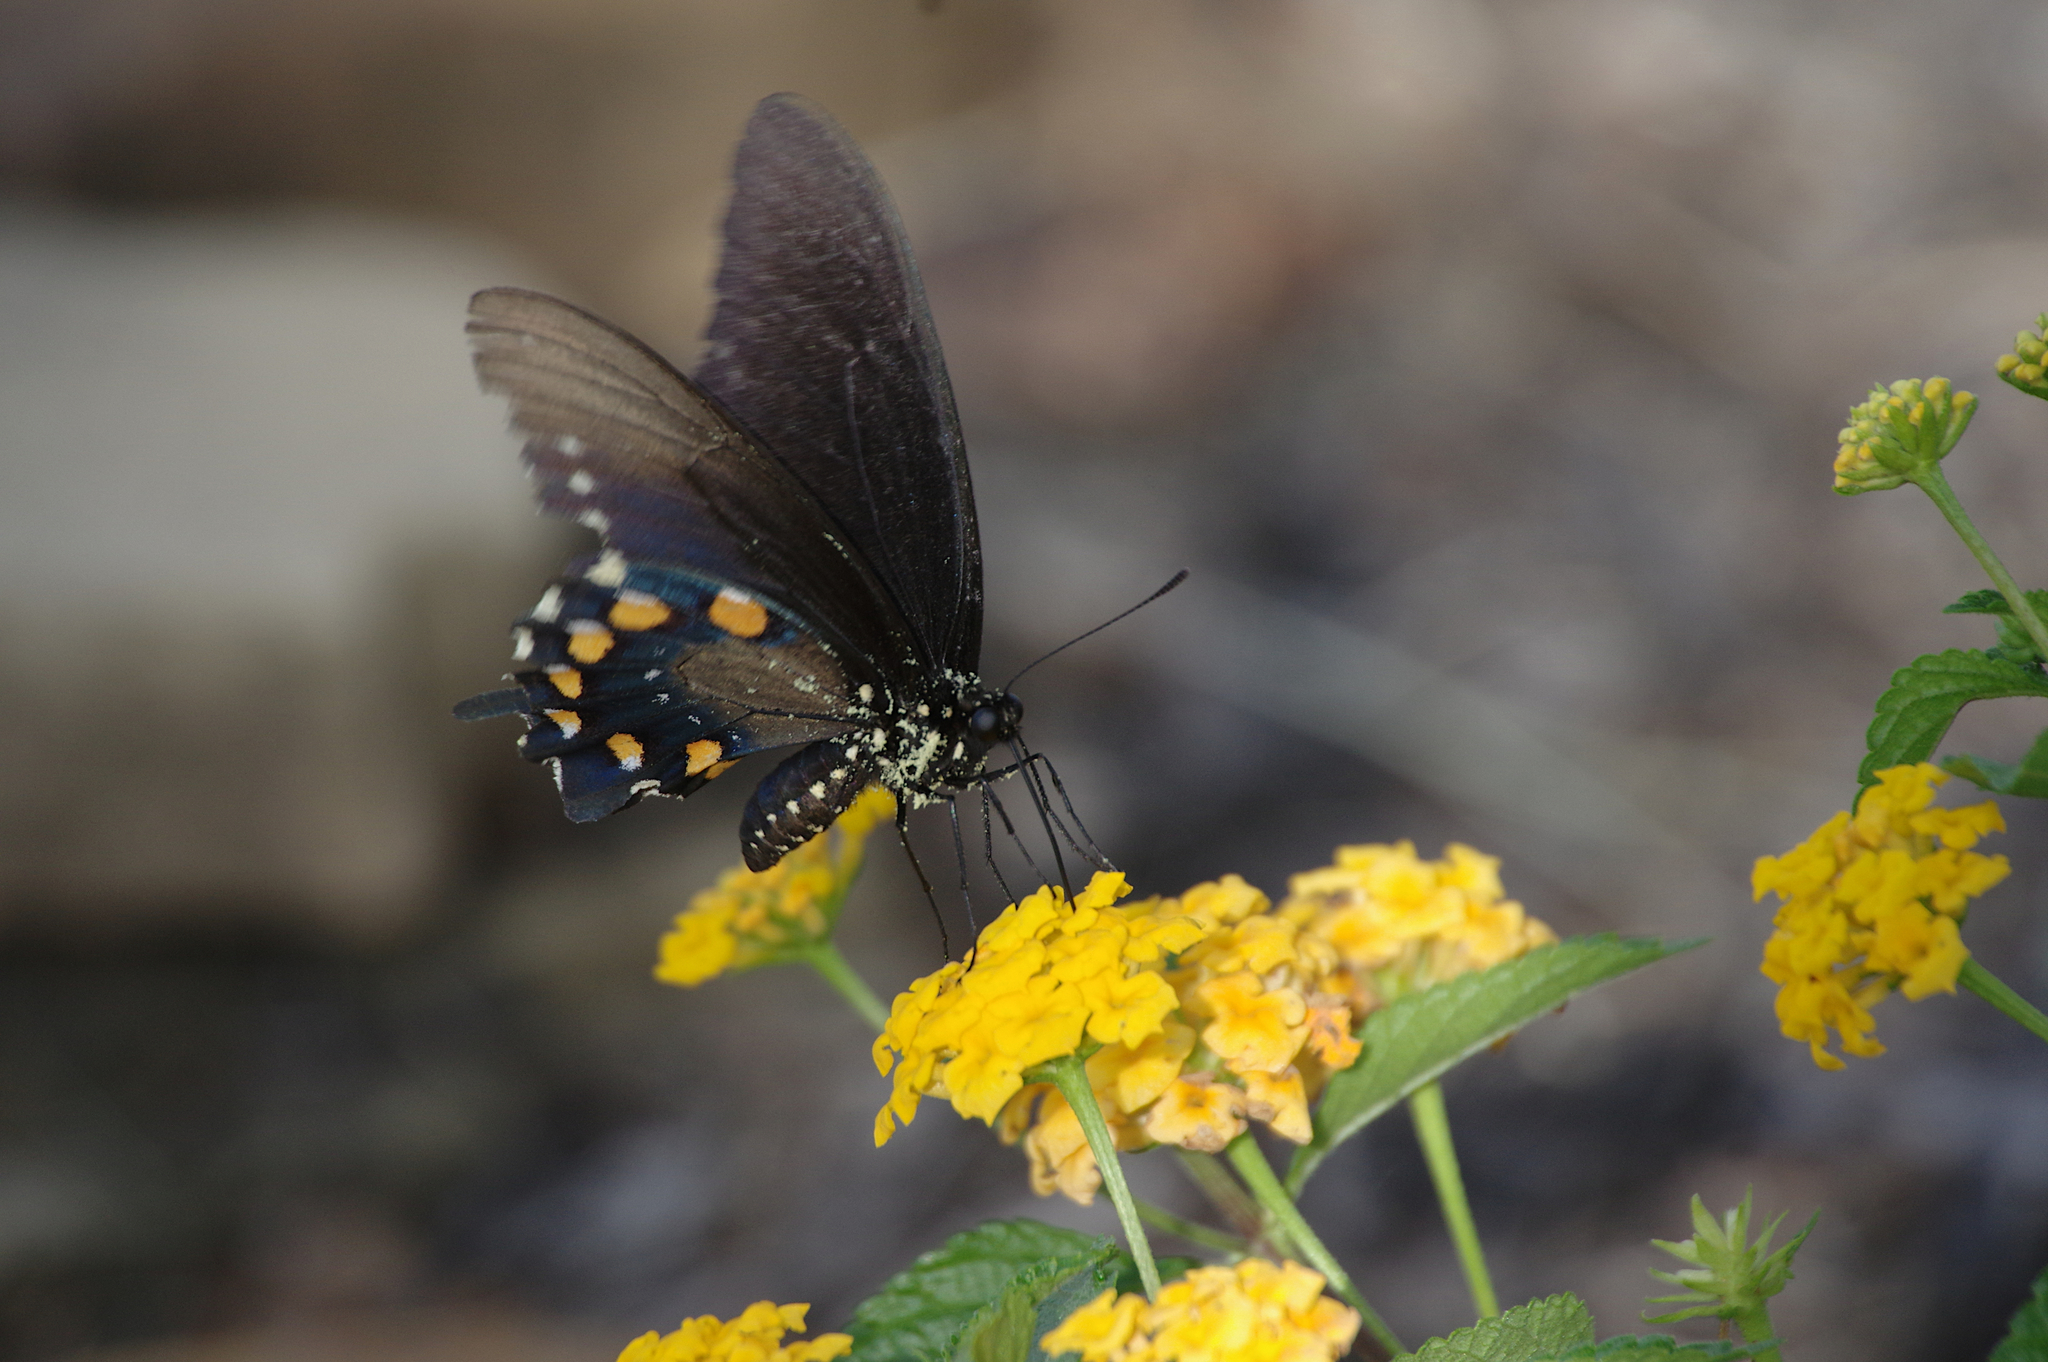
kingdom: Animalia
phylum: Arthropoda
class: Insecta
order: Lepidoptera
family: Papilionidae
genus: Battus
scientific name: Battus philenor
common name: Pipevine swallowtail
